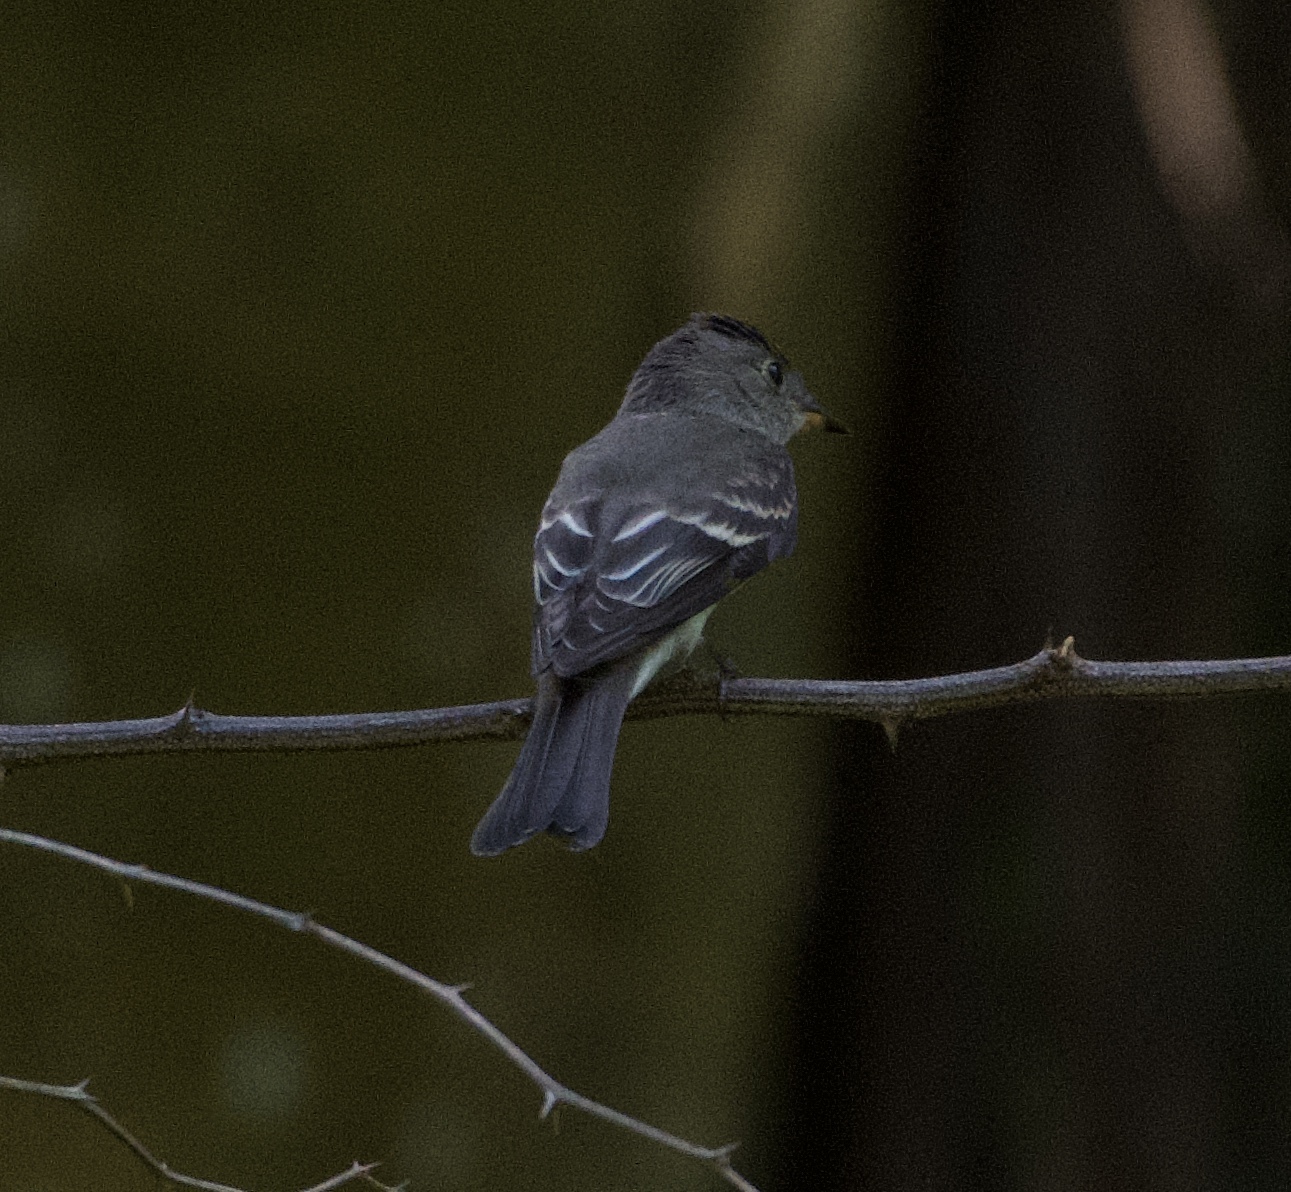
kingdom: Animalia
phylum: Chordata
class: Aves
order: Passeriformes
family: Tyrannidae
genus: Contopus
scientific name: Contopus virens
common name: Eastern wood-pewee
